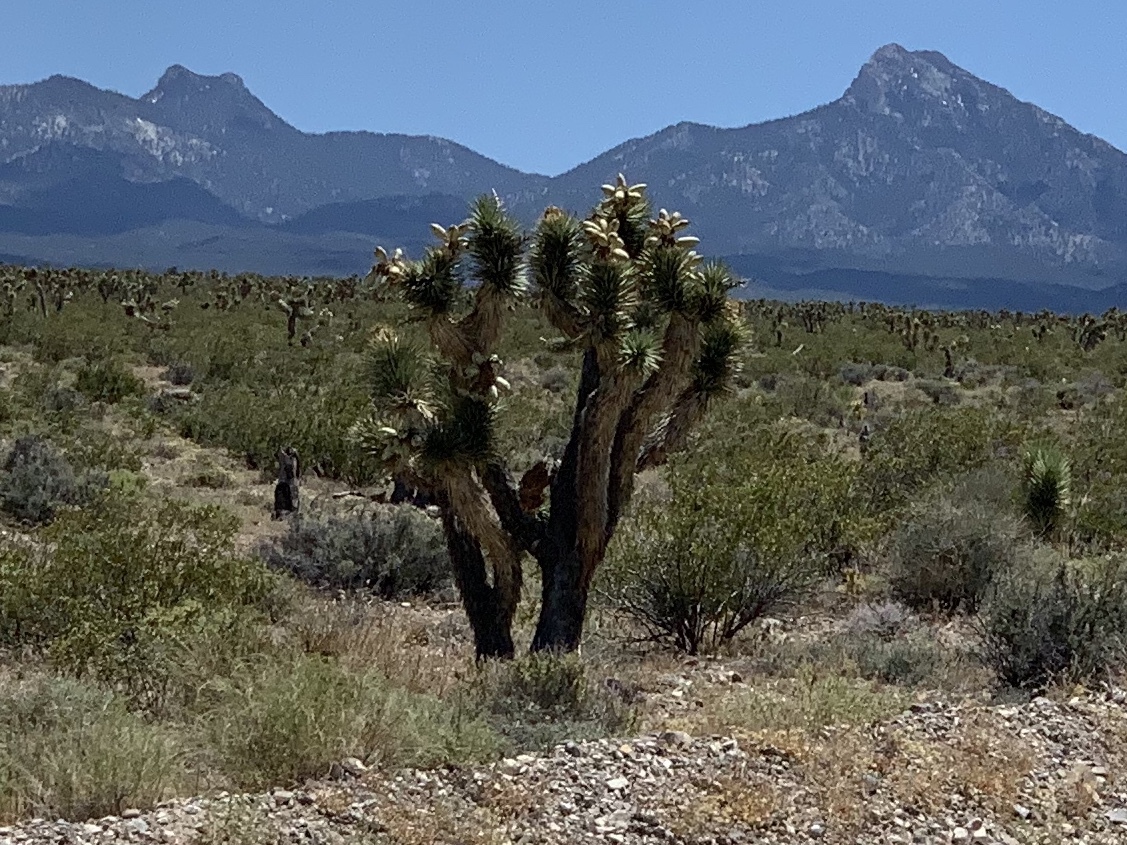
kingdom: Plantae
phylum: Tracheophyta
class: Liliopsida
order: Asparagales
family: Asparagaceae
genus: Yucca
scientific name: Yucca brevifolia
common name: Joshua tree
